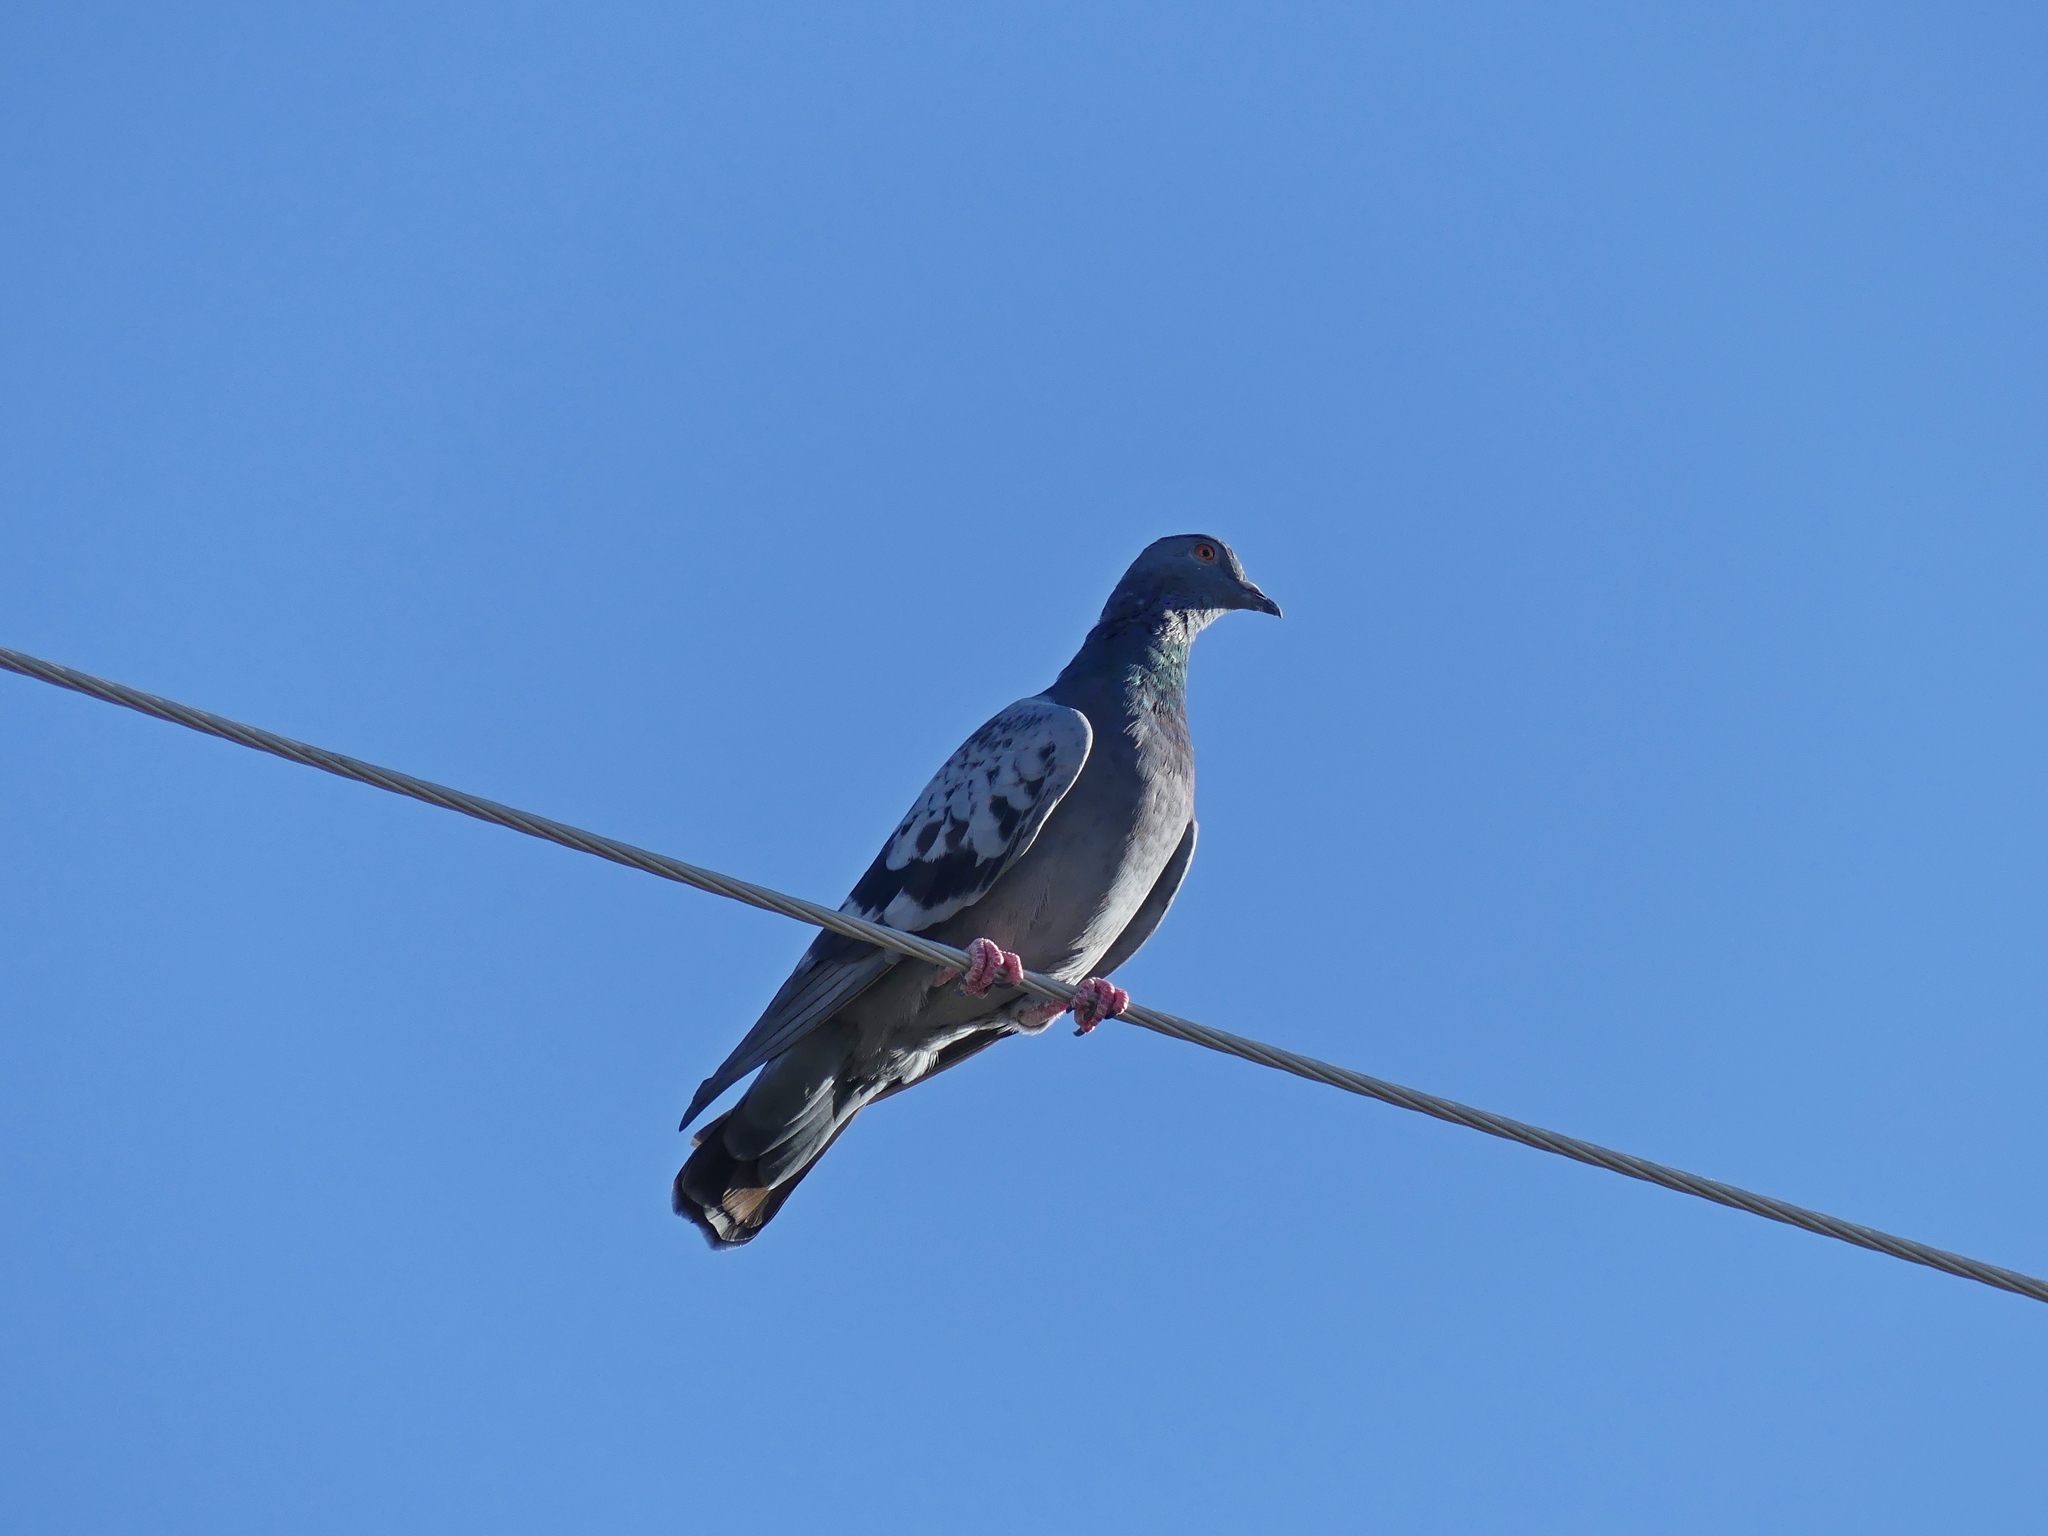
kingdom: Animalia
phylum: Chordata
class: Aves
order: Columbiformes
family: Columbidae
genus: Columba
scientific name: Columba livia
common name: Rock pigeon
